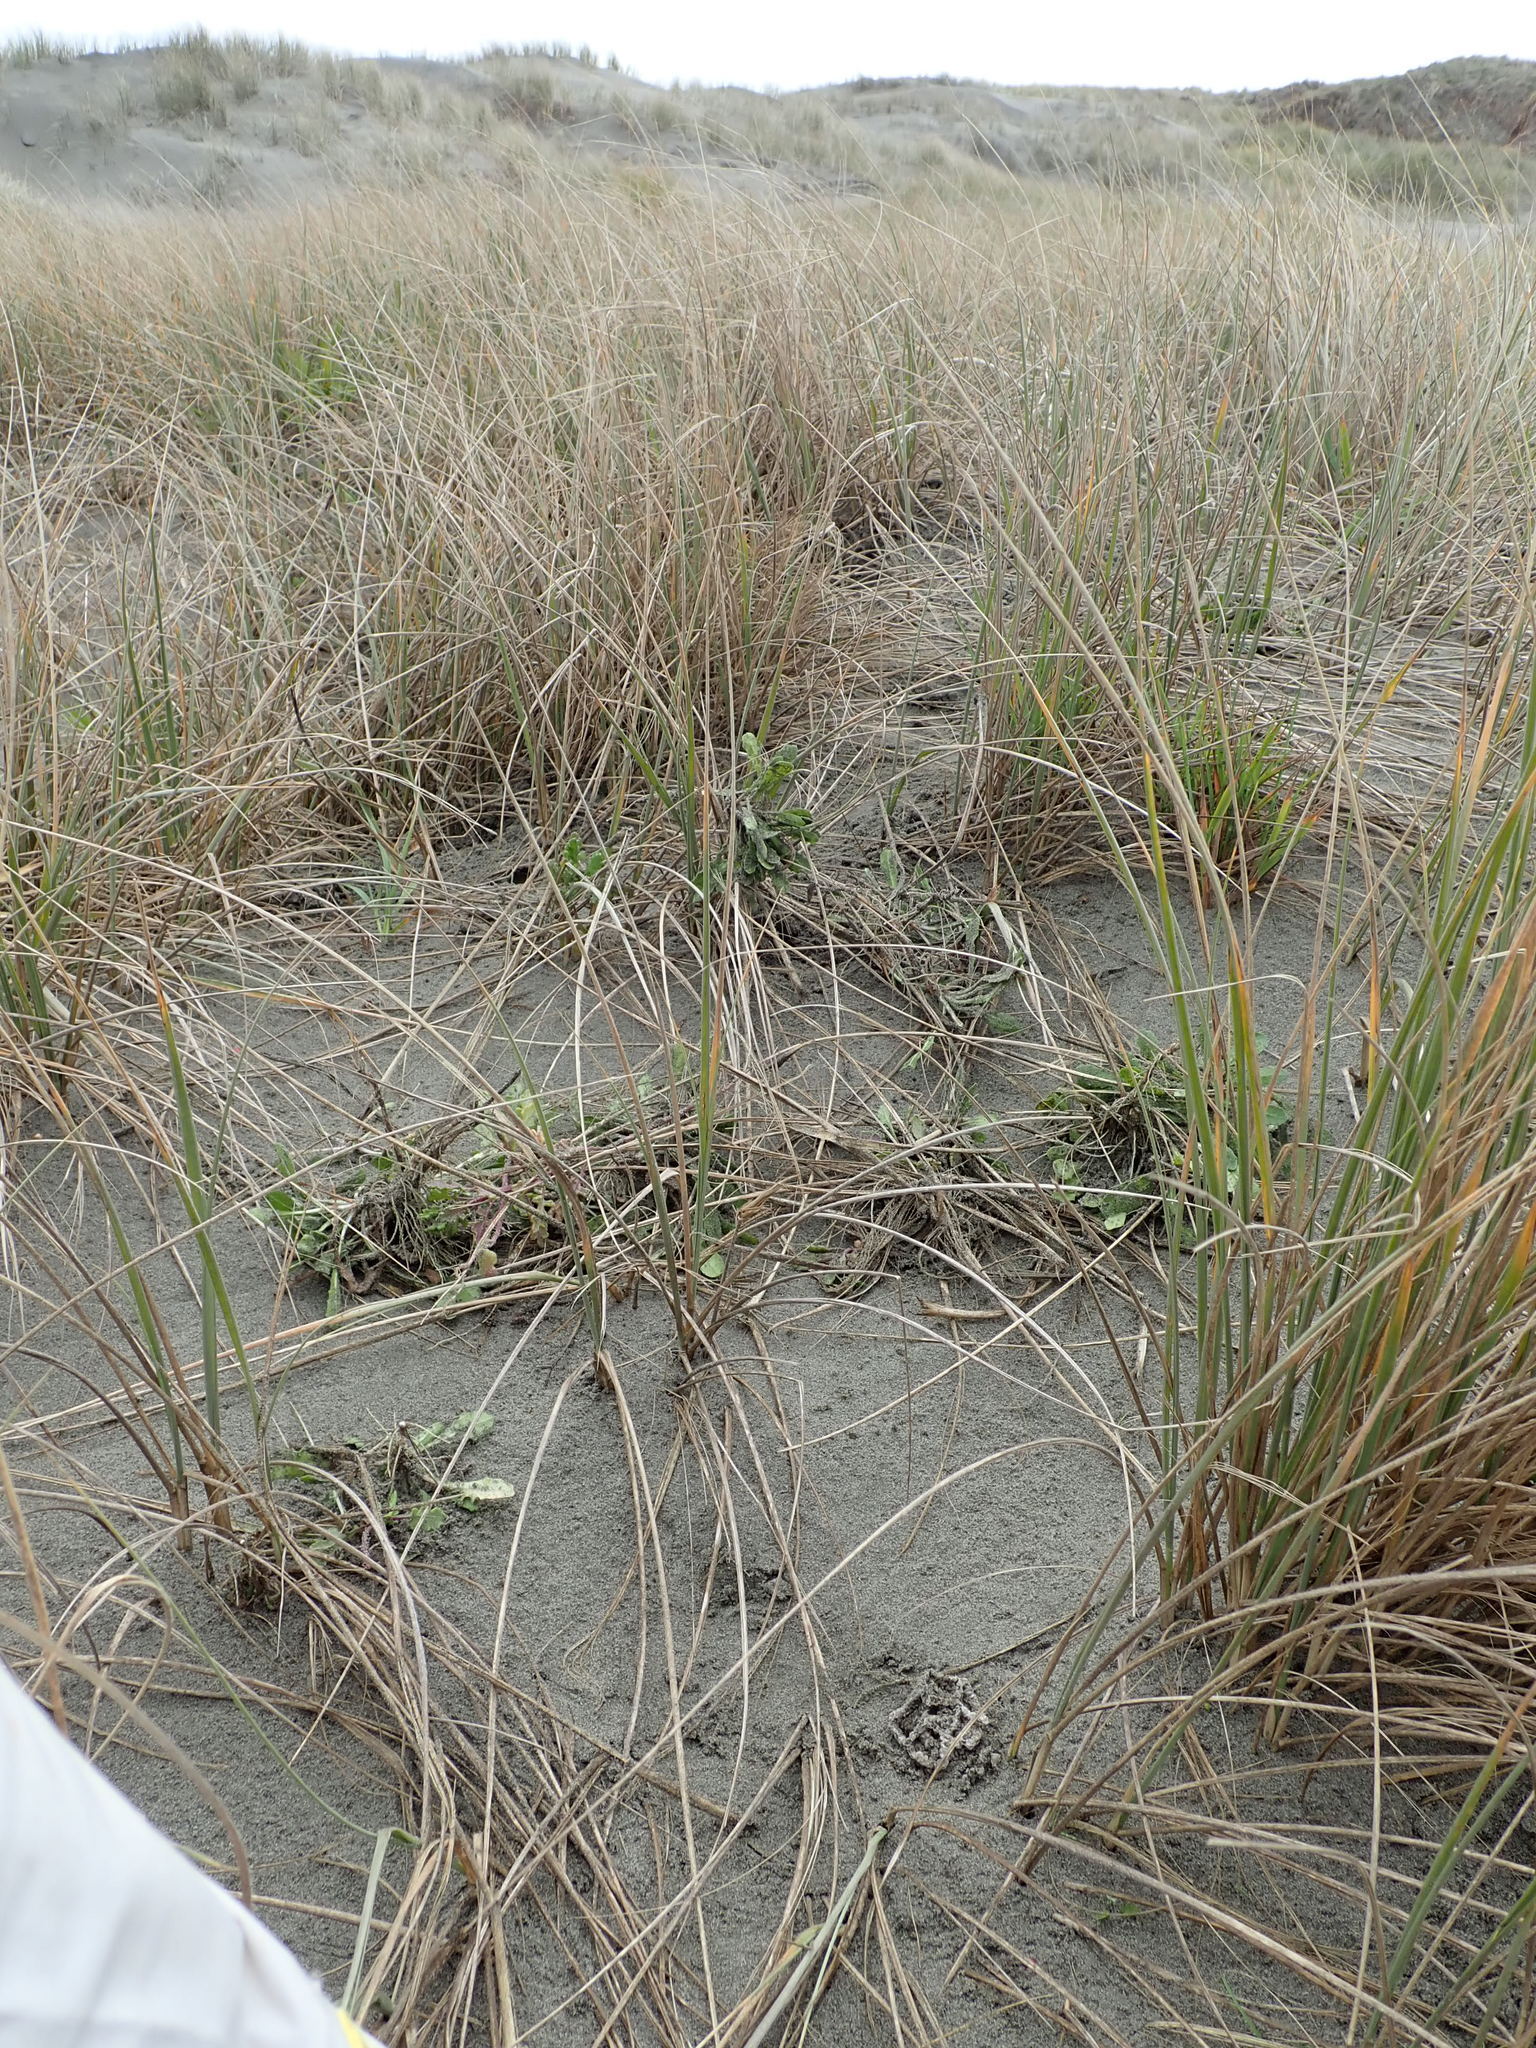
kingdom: Fungi
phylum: Basidiomycota
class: Agaricomycetes
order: Phallales
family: Phallaceae
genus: Ileodictyon
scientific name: Ileodictyon cibarium
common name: Basket fungus
